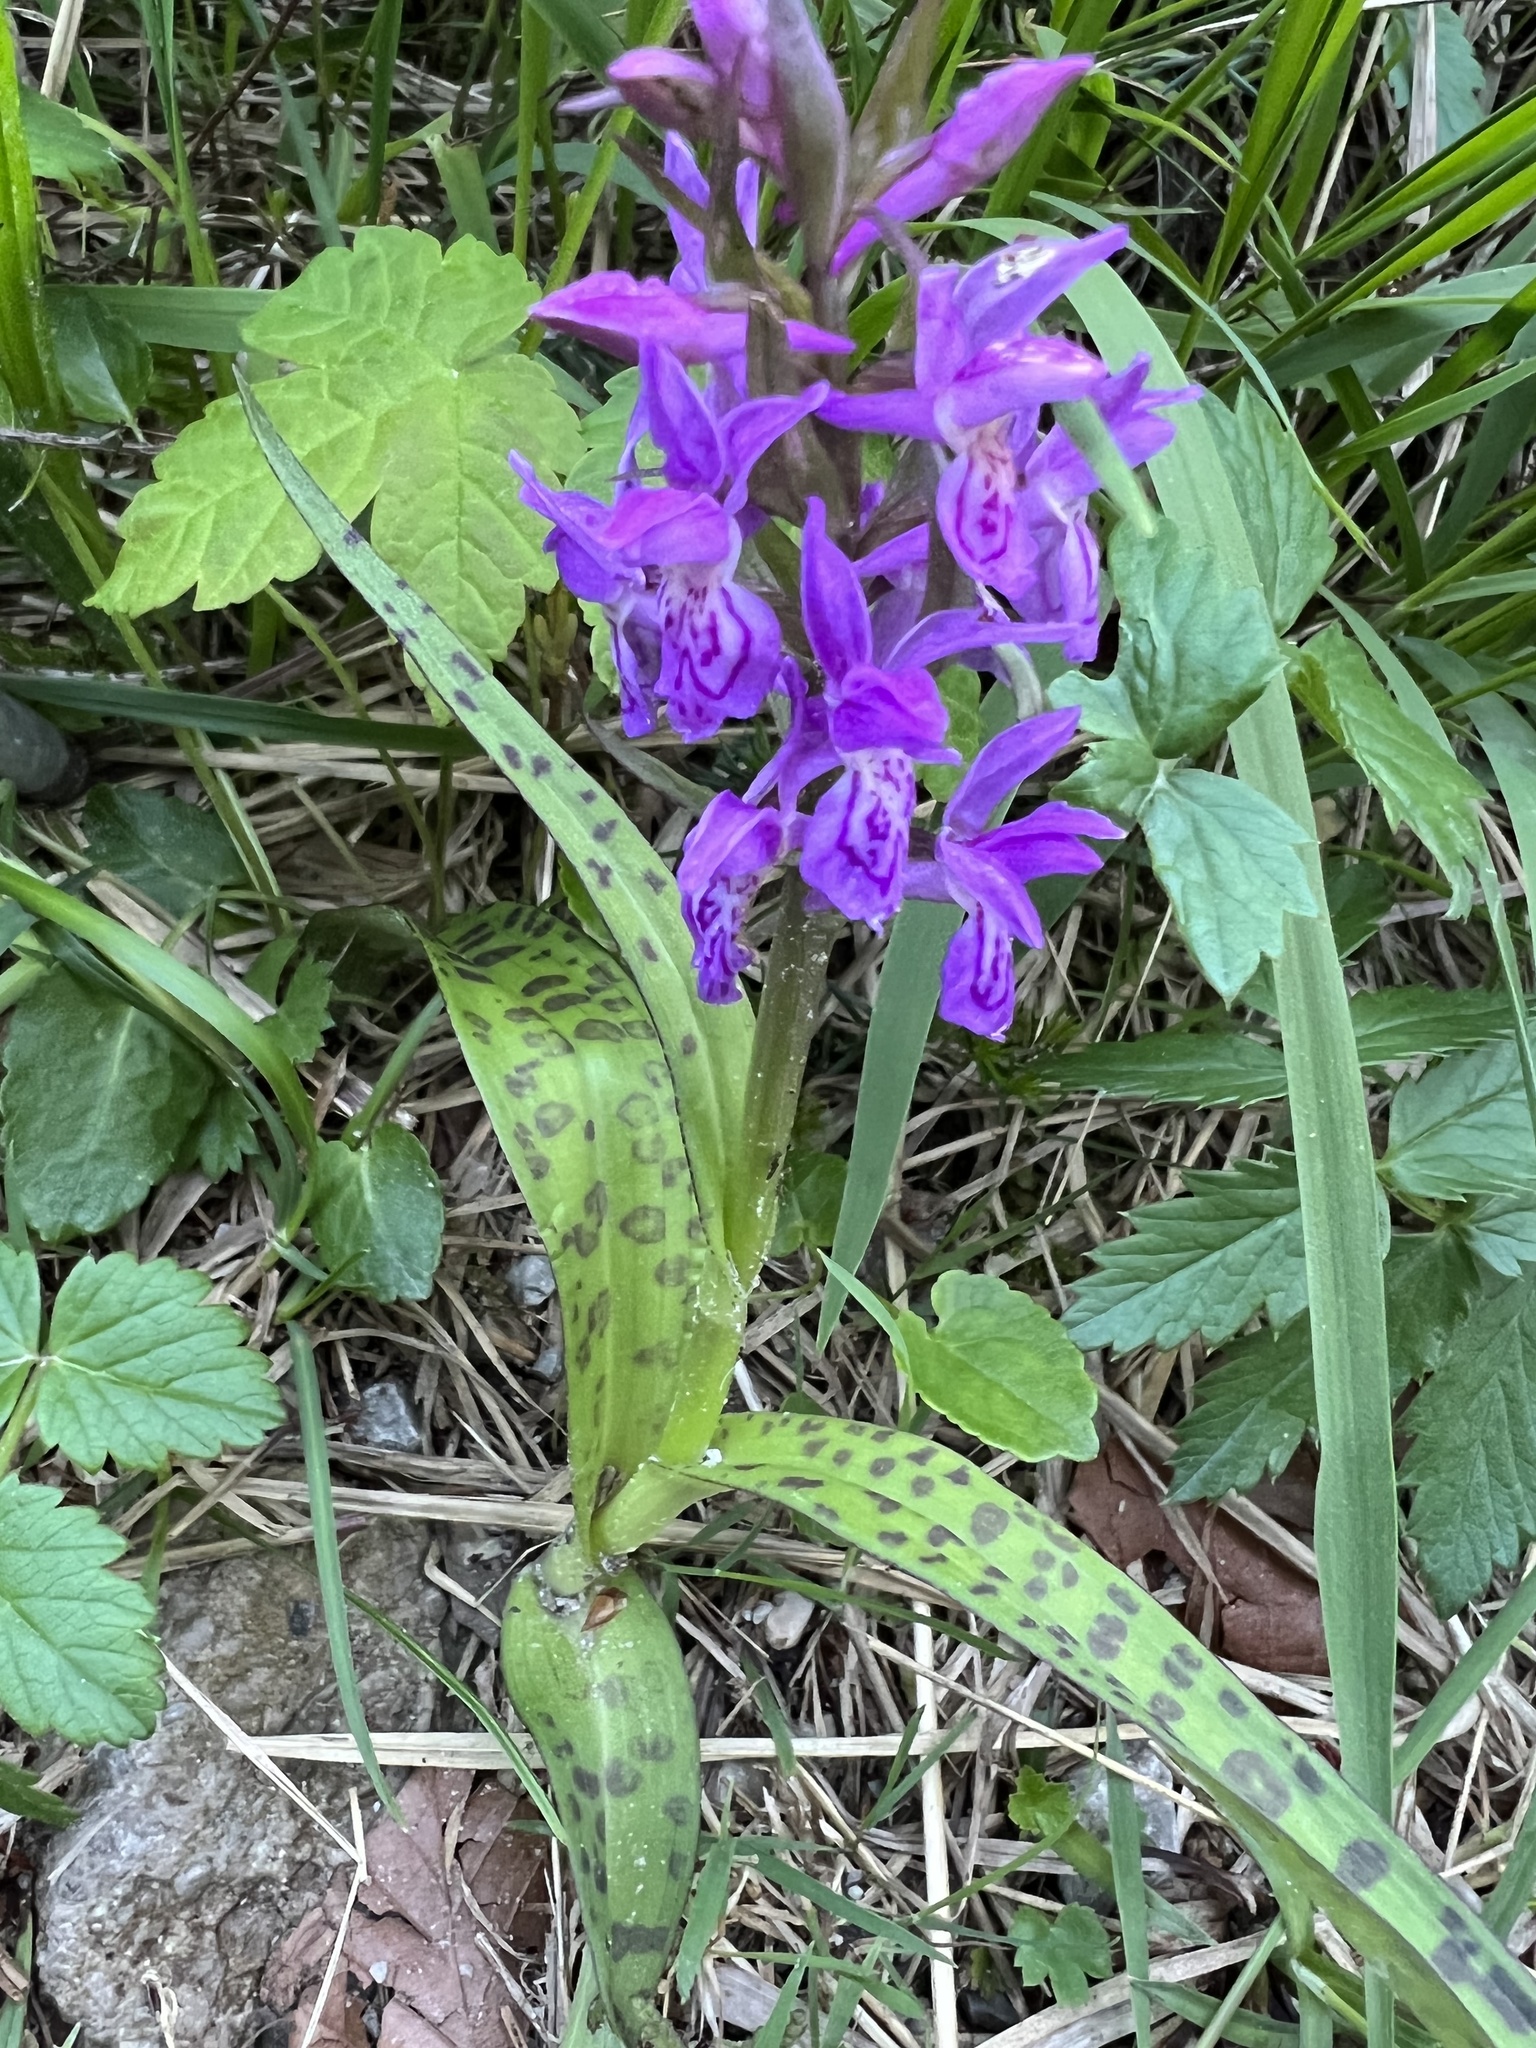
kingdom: Plantae
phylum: Tracheophyta
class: Liliopsida
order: Asparagales
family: Orchidaceae
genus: Dactylorhiza
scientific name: Dactylorhiza majalis
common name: Marsh orchid
